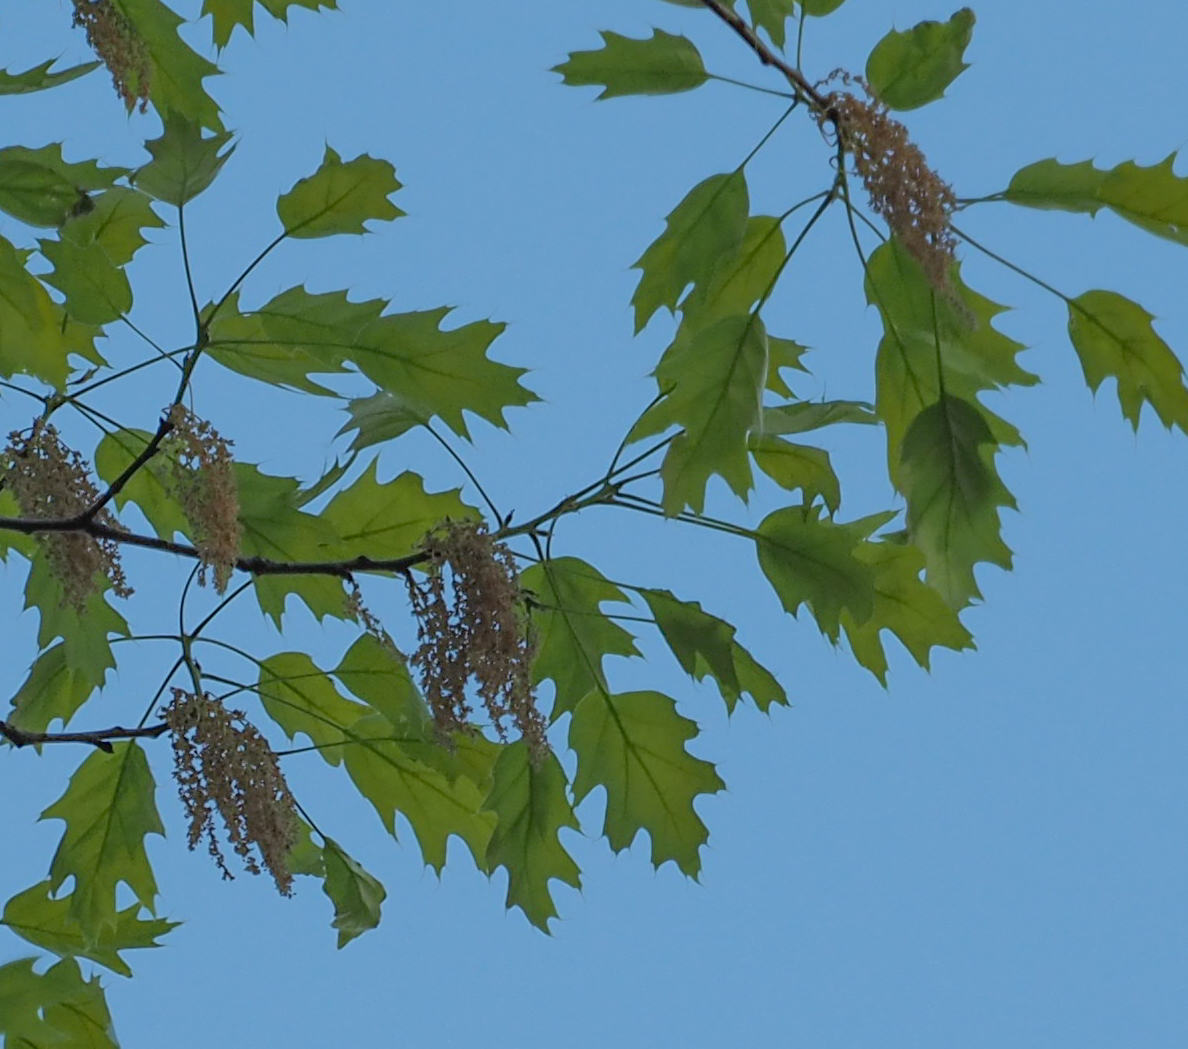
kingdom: Plantae
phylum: Tracheophyta
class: Magnoliopsida
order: Fagales
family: Fagaceae
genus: Quercus
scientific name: Quercus rubra
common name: Red oak
